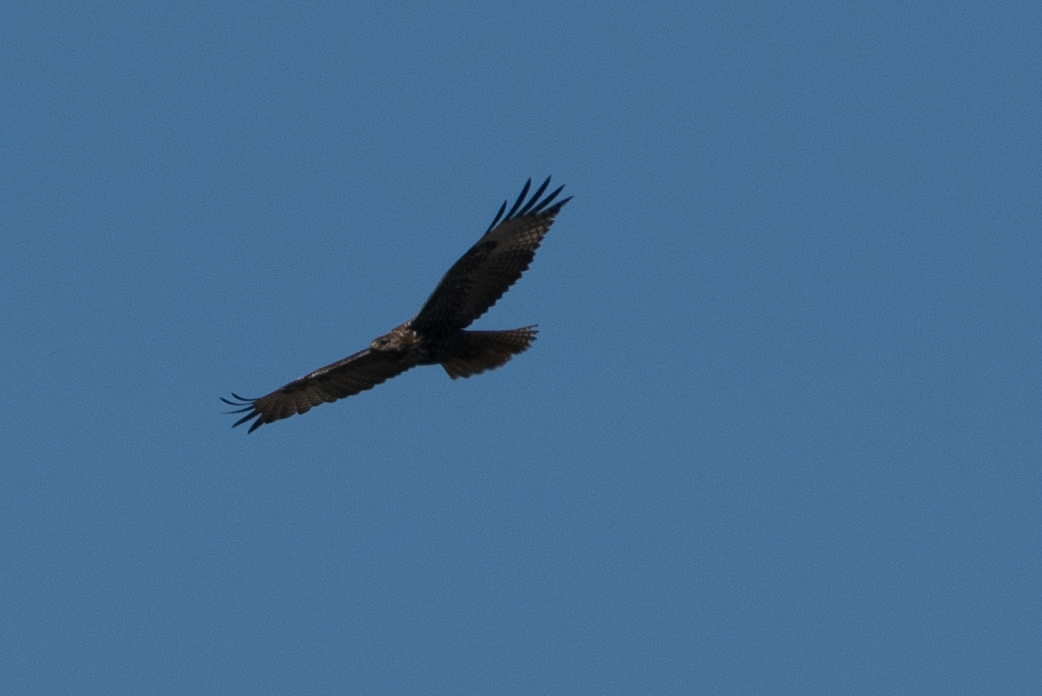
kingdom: Animalia
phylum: Chordata
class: Aves
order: Accipitriformes
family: Cathartidae
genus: Cathartes
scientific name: Cathartes aura
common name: Turkey vulture
